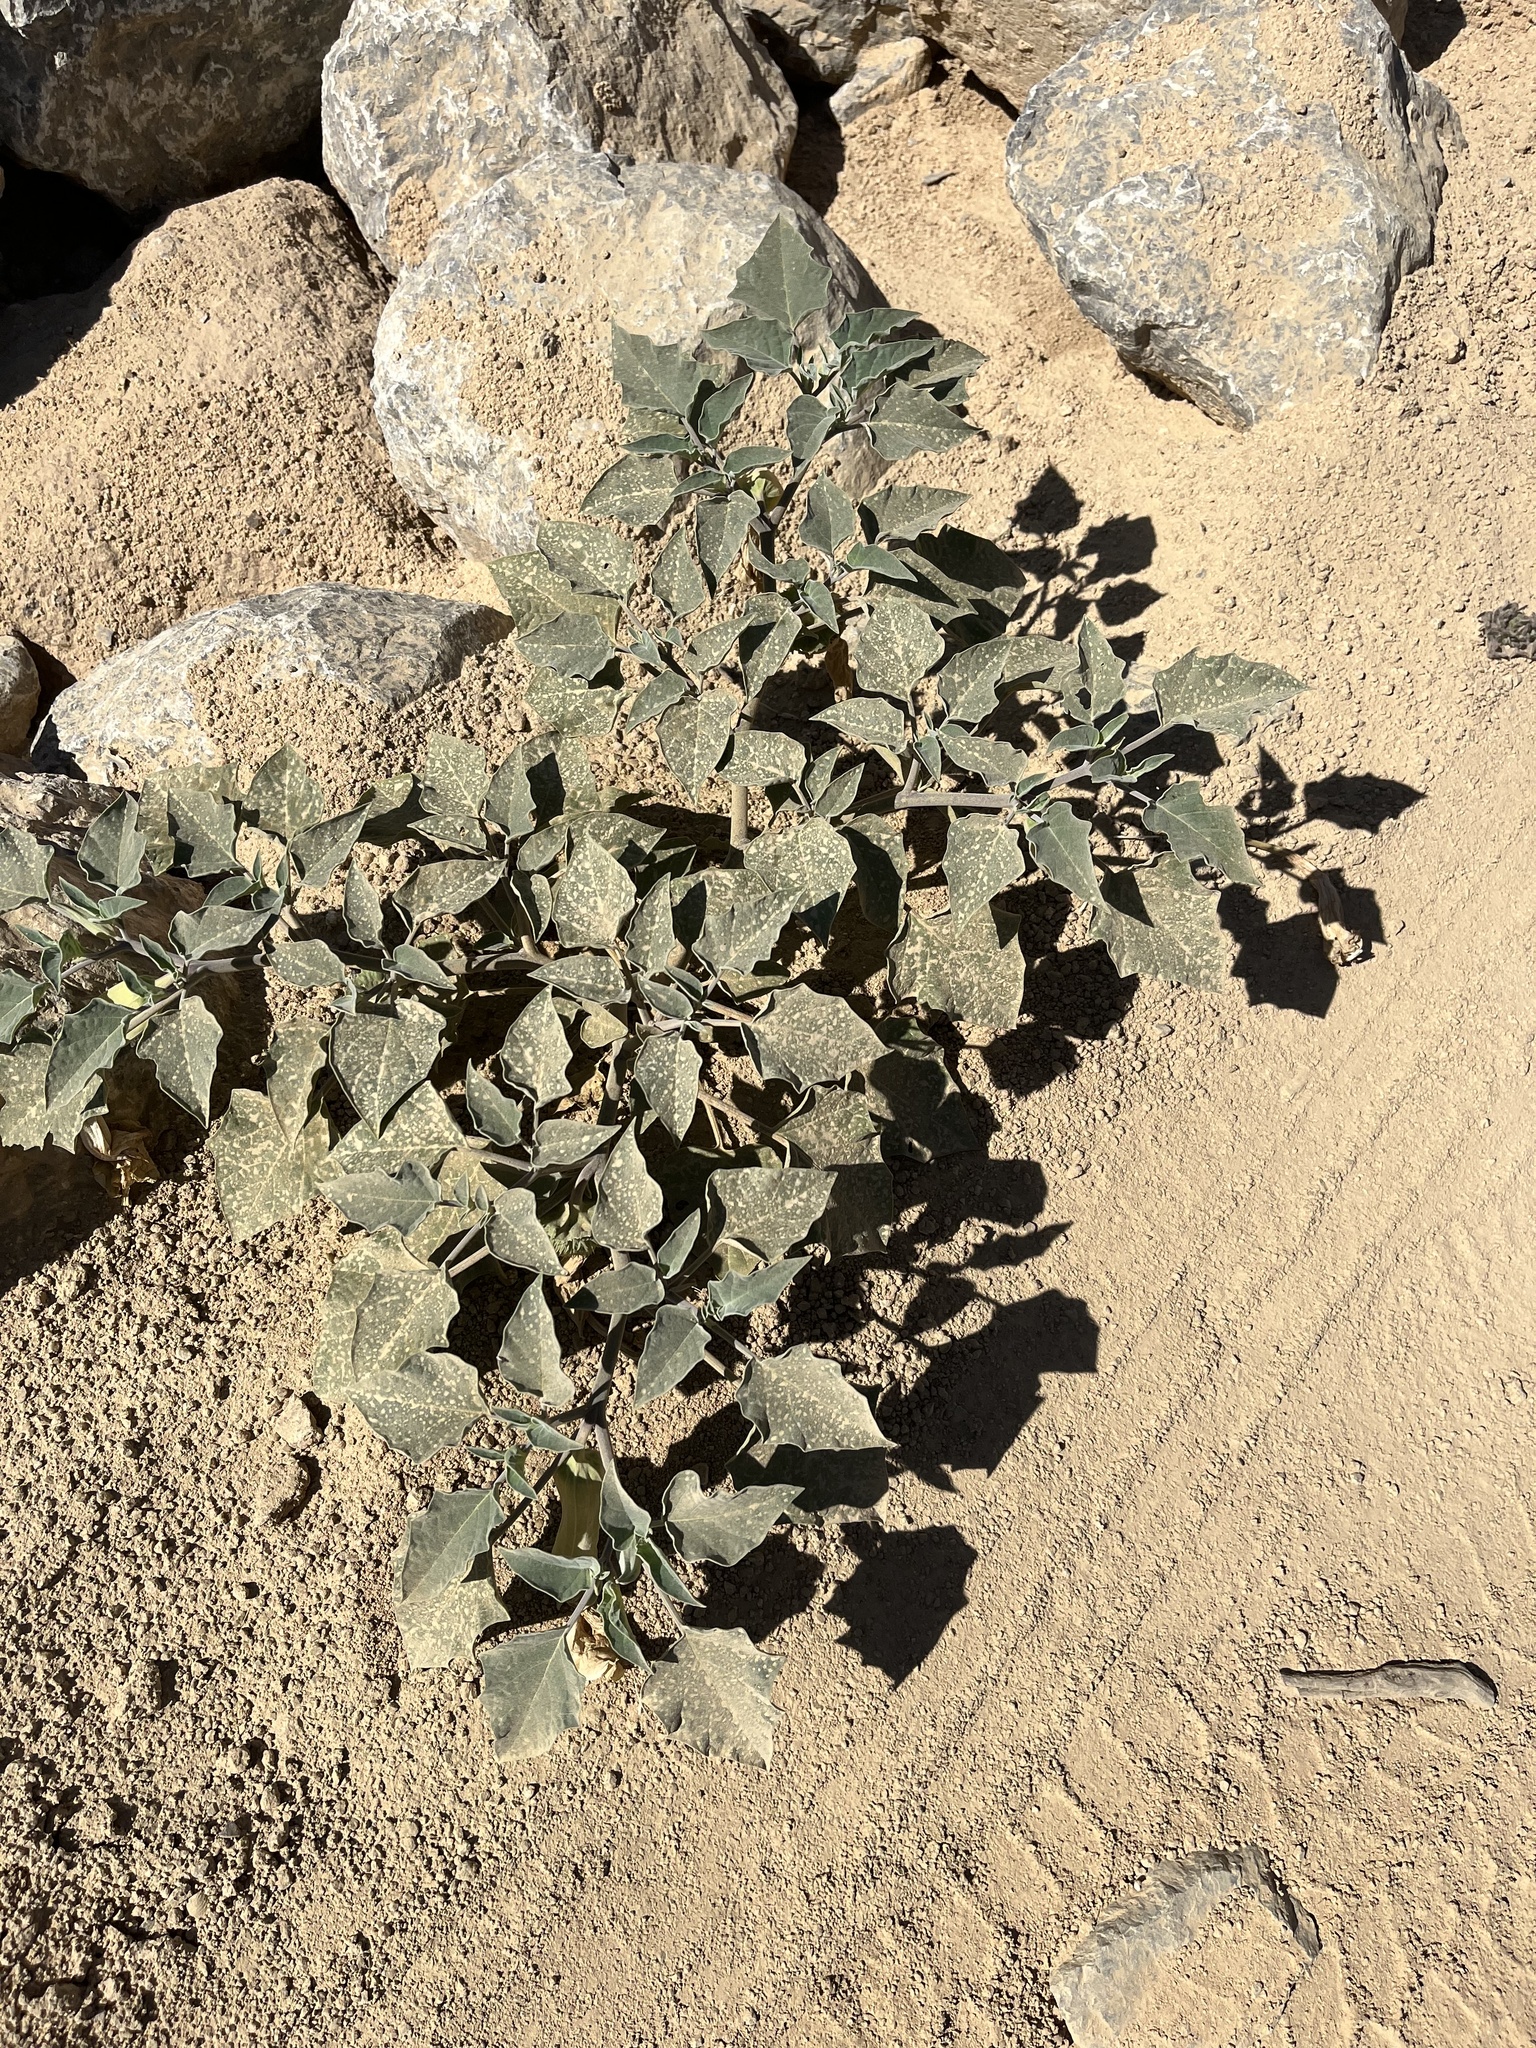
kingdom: Plantae
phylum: Tracheophyta
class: Magnoliopsida
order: Solanales
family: Solanaceae
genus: Datura
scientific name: Datura wrightii
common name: Sacred thorn-apple
